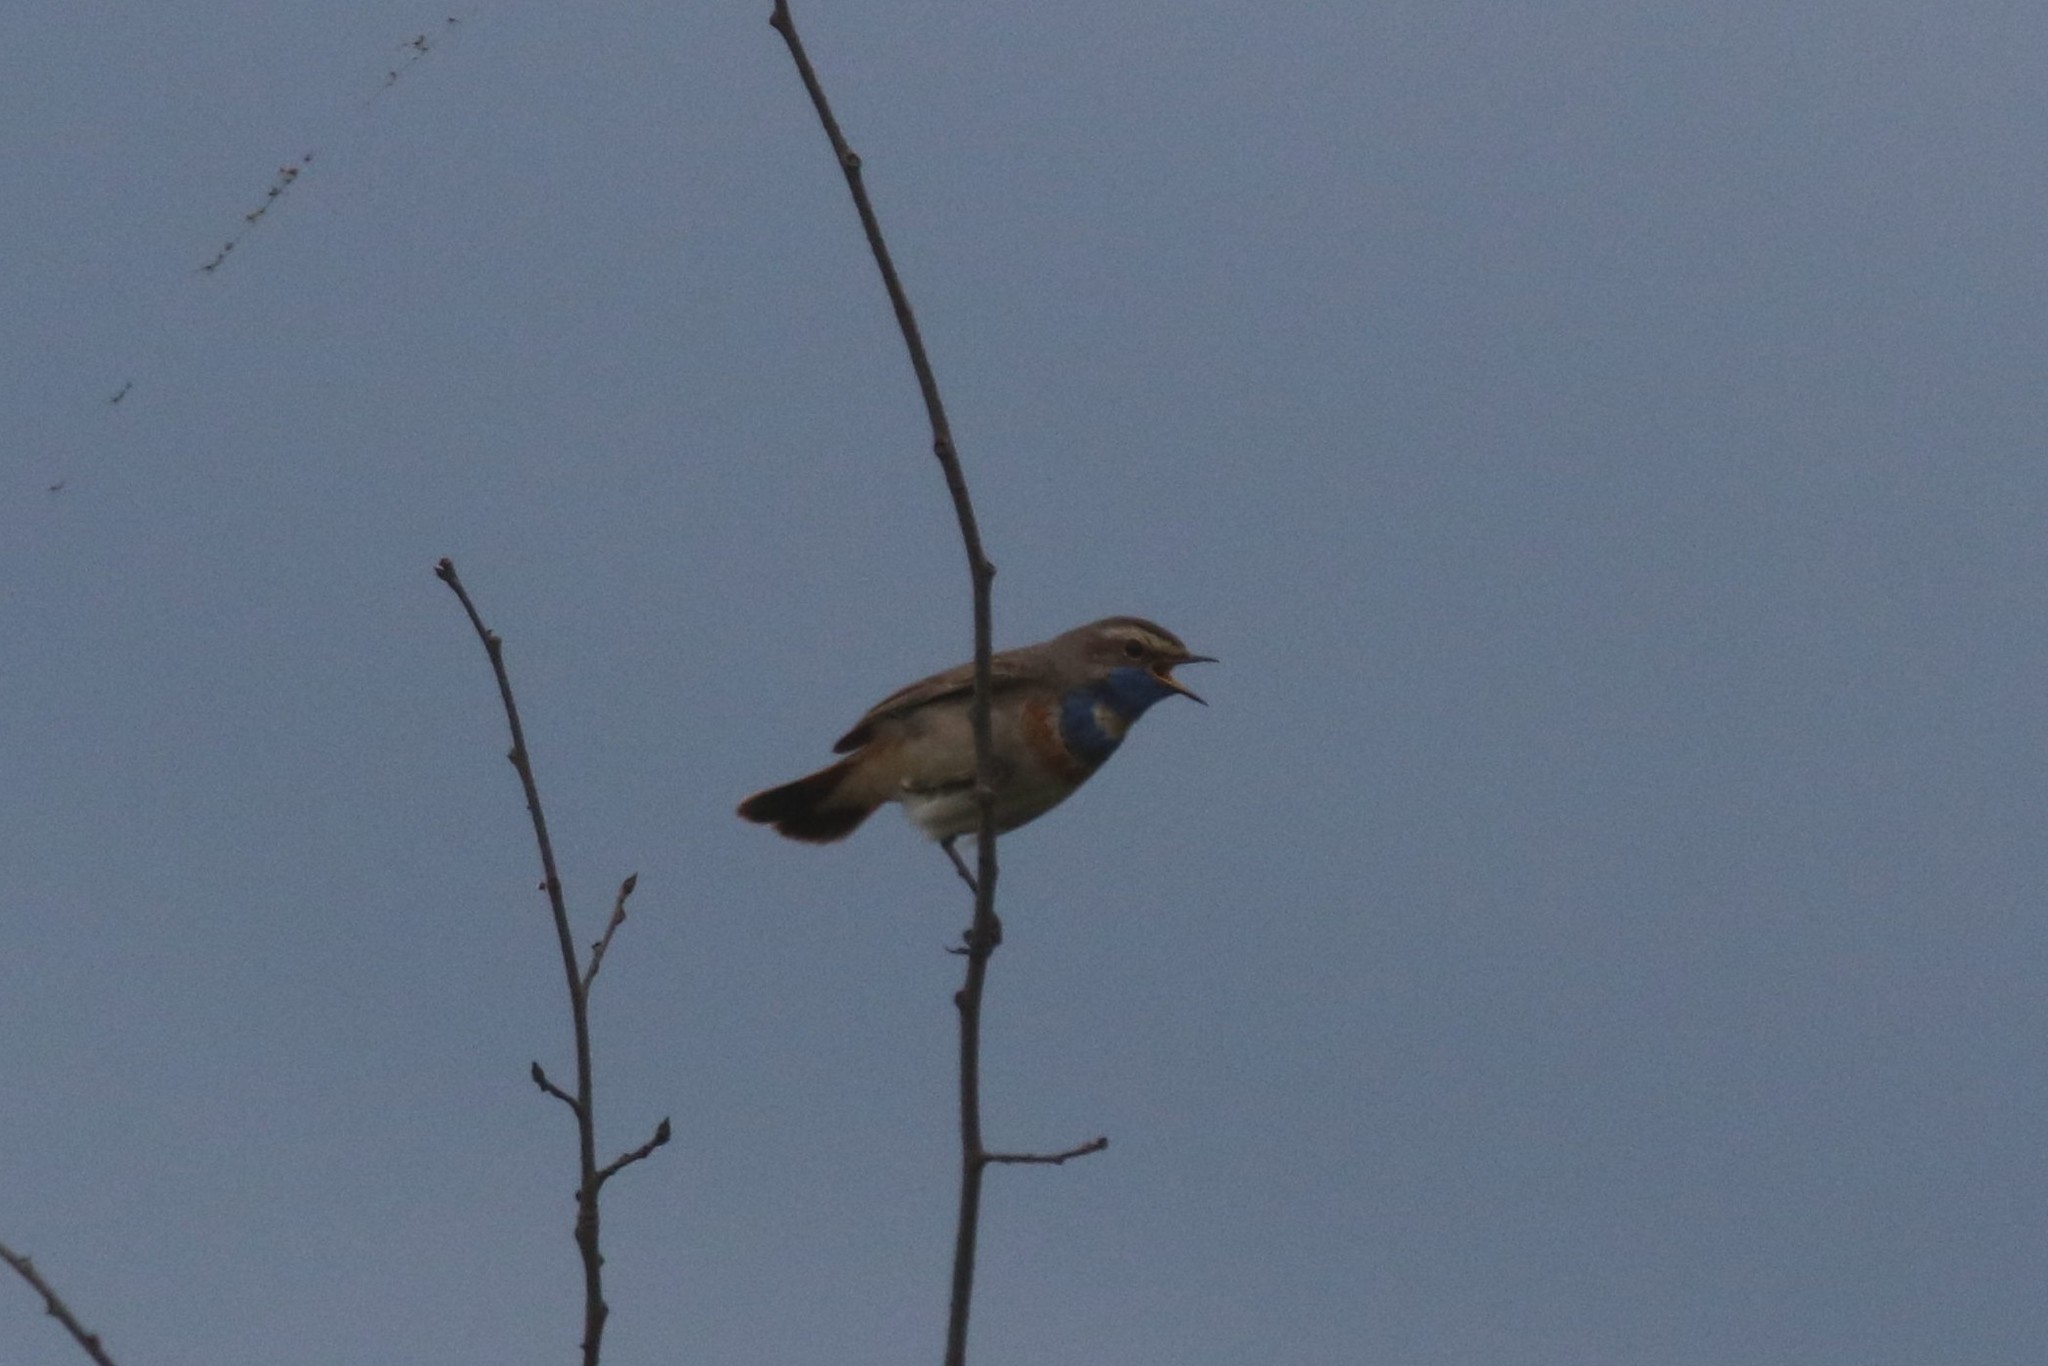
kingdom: Animalia
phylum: Chordata
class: Aves
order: Passeriformes
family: Muscicapidae
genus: Luscinia
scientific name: Luscinia svecica
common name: Bluethroat
